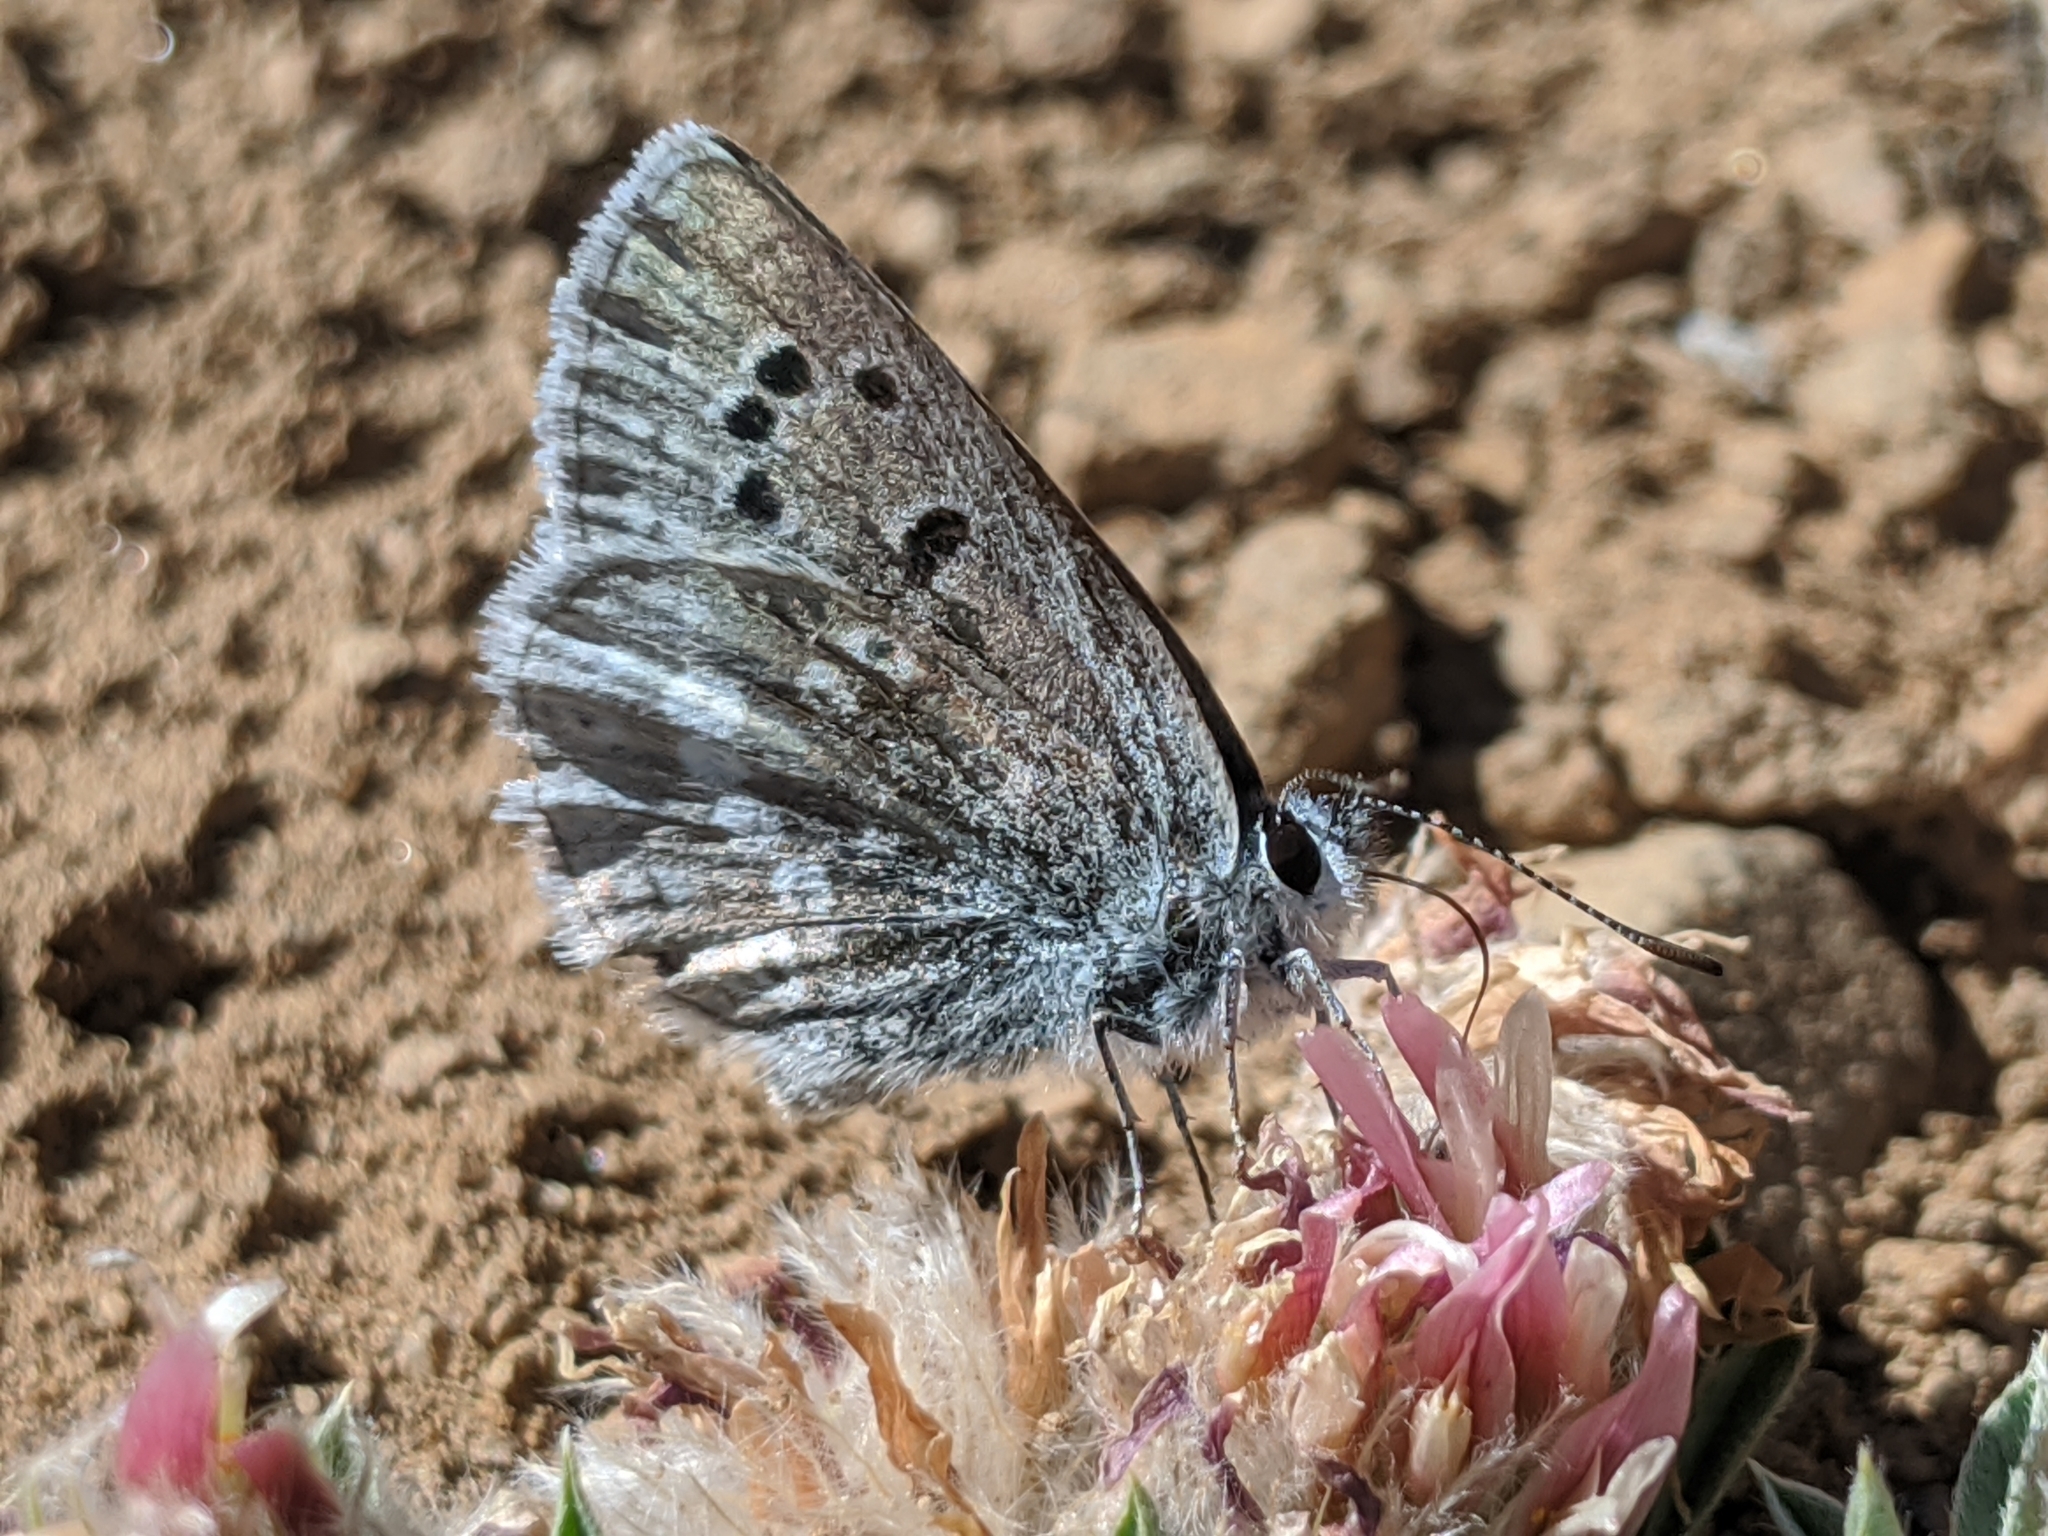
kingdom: Animalia
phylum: Arthropoda
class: Insecta
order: Lepidoptera
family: Lycaenidae
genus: Icaricia
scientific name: Icaricia icarioides
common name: Boisduval's blue
